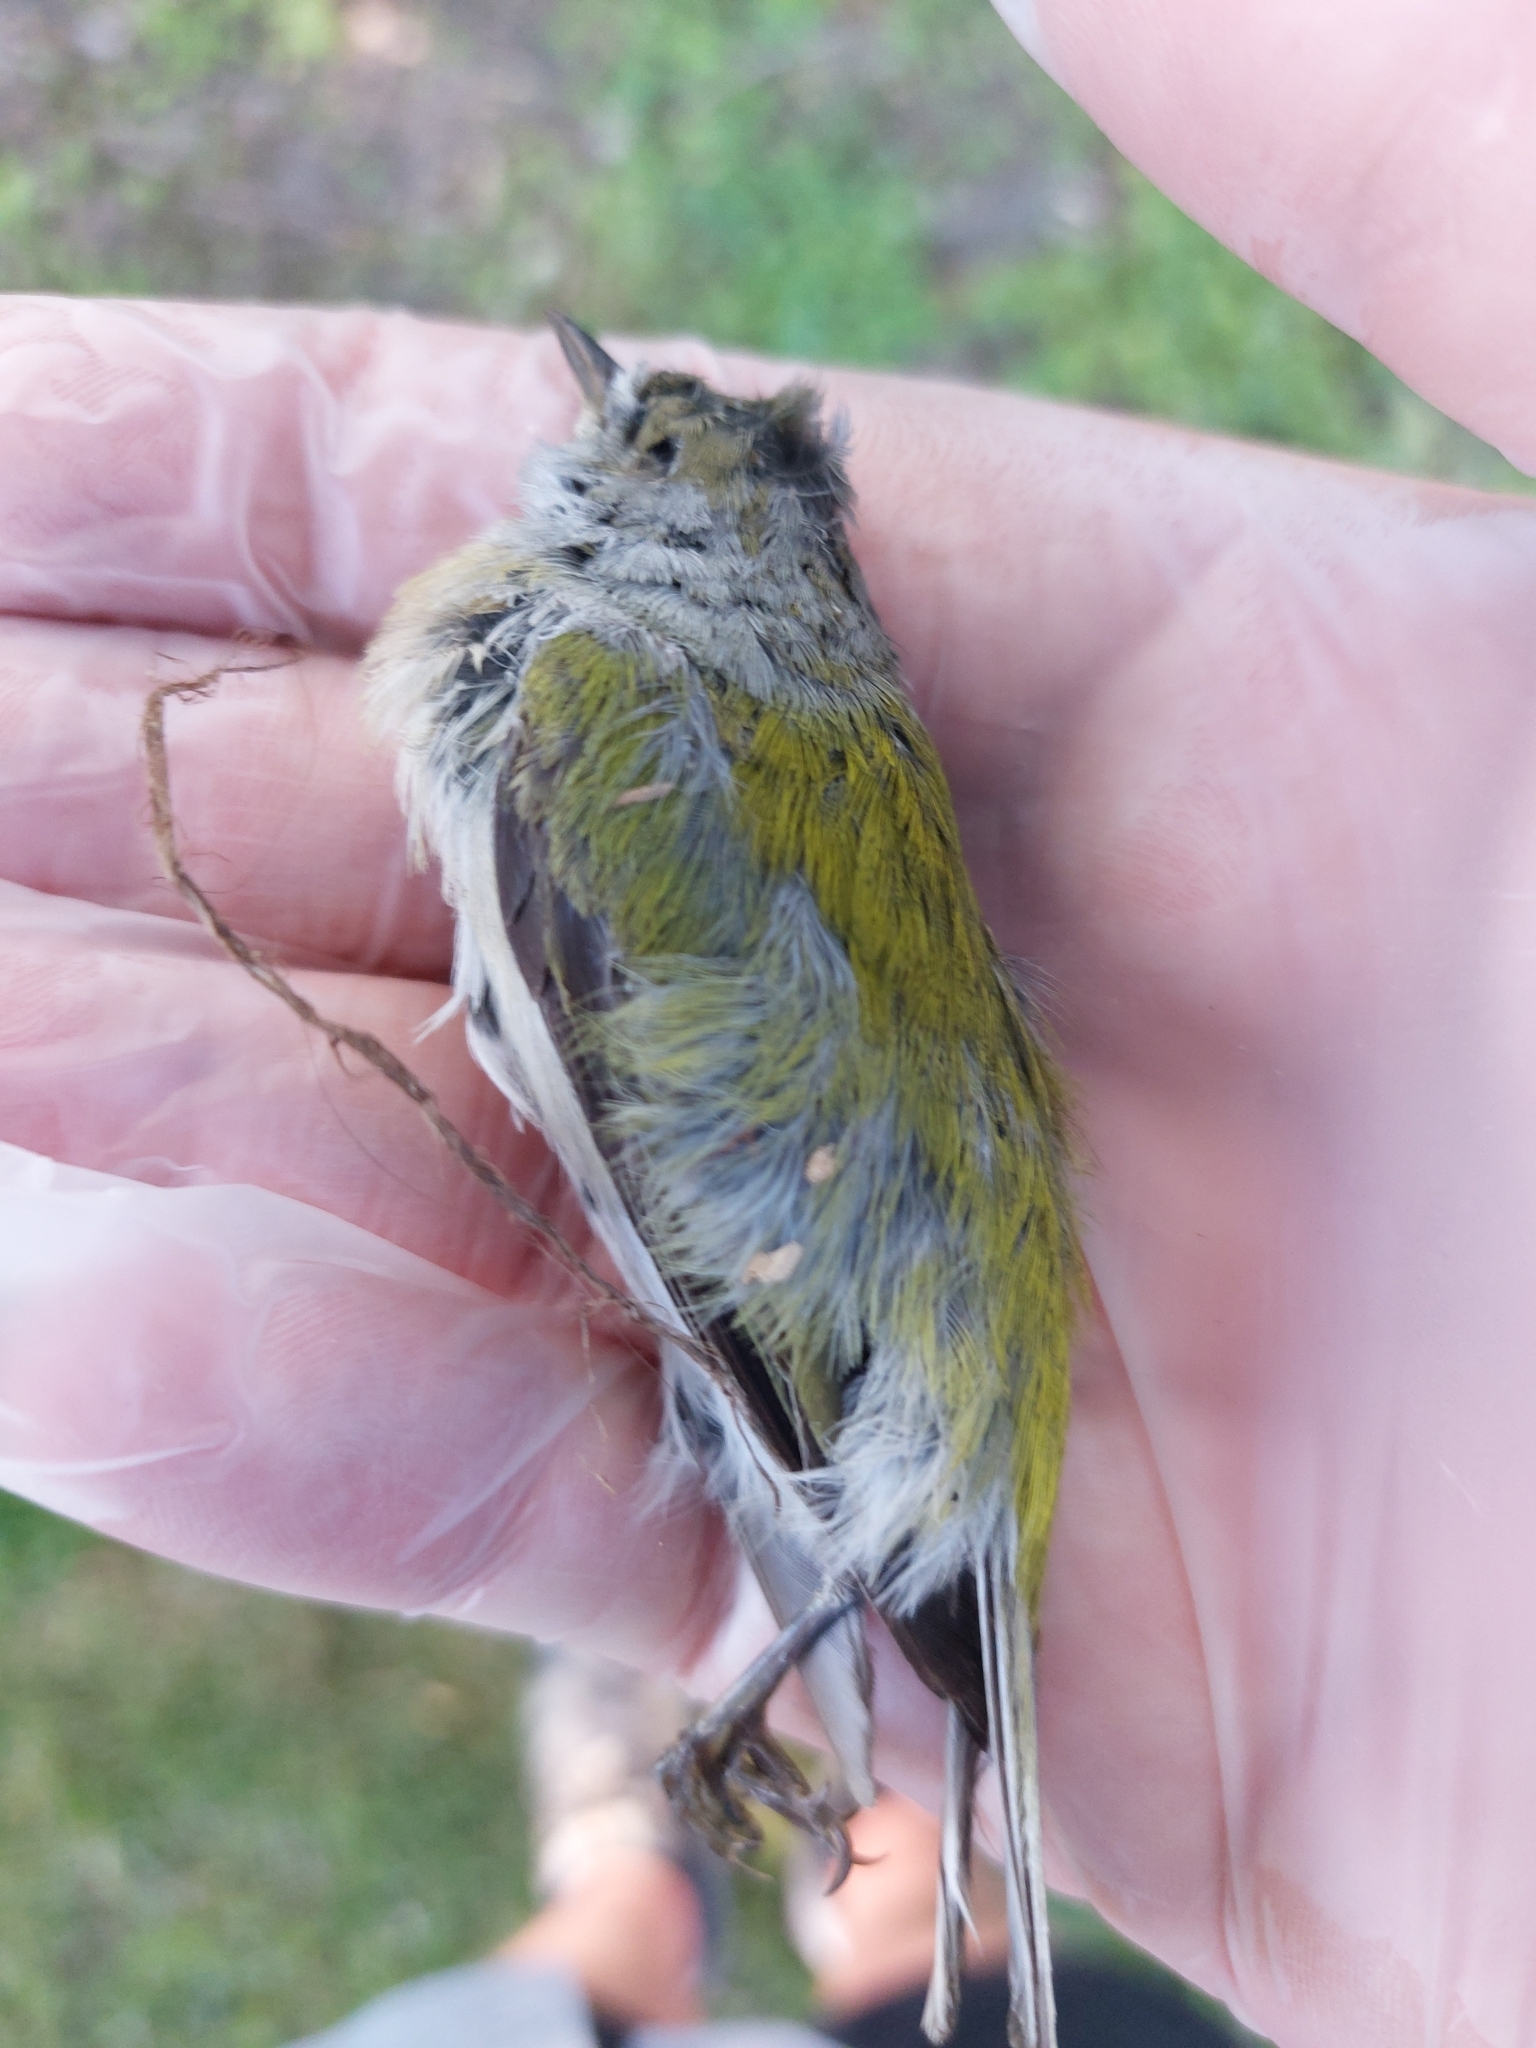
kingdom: Animalia
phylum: Chordata
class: Aves
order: Passeriformes
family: Parulidae
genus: Leiothlypis
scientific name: Leiothlypis peregrina
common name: Tennessee warbler
